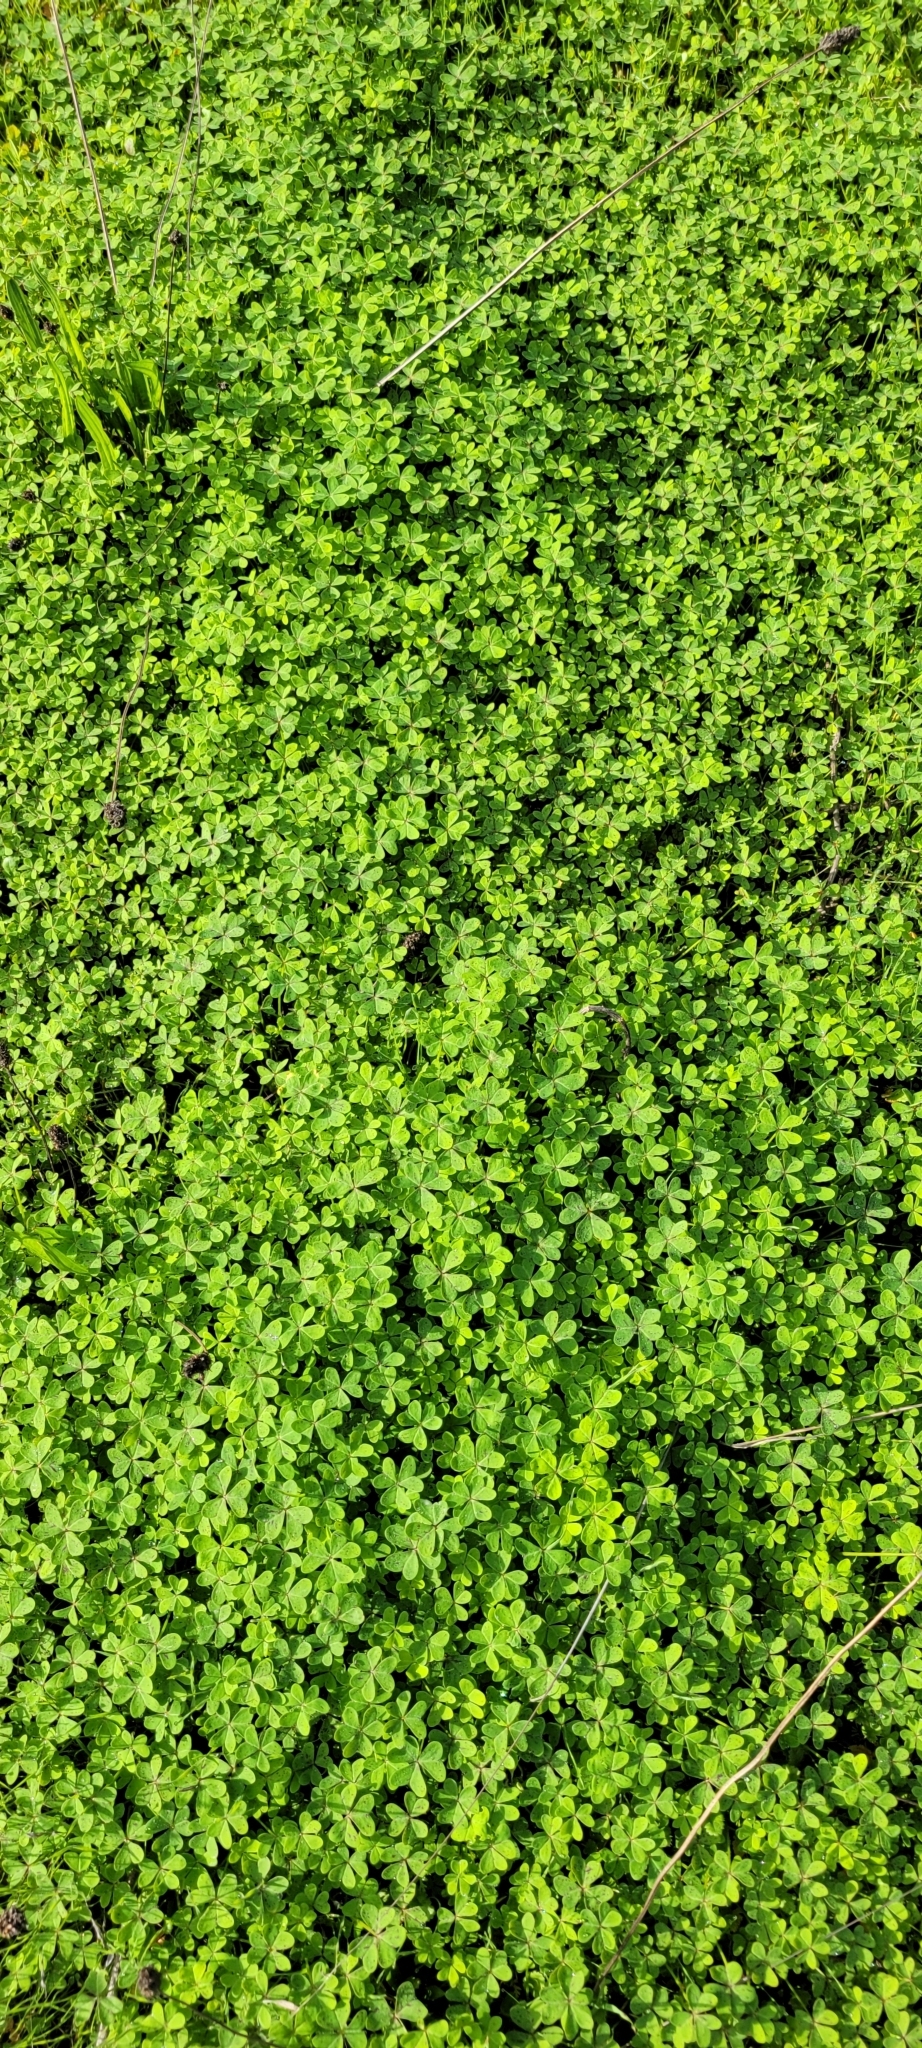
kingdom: Plantae
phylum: Tracheophyta
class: Magnoliopsida
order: Oxalidales
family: Oxalidaceae
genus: Oxalis
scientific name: Oxalis pes-caprae
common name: Bermuda-buttercup
